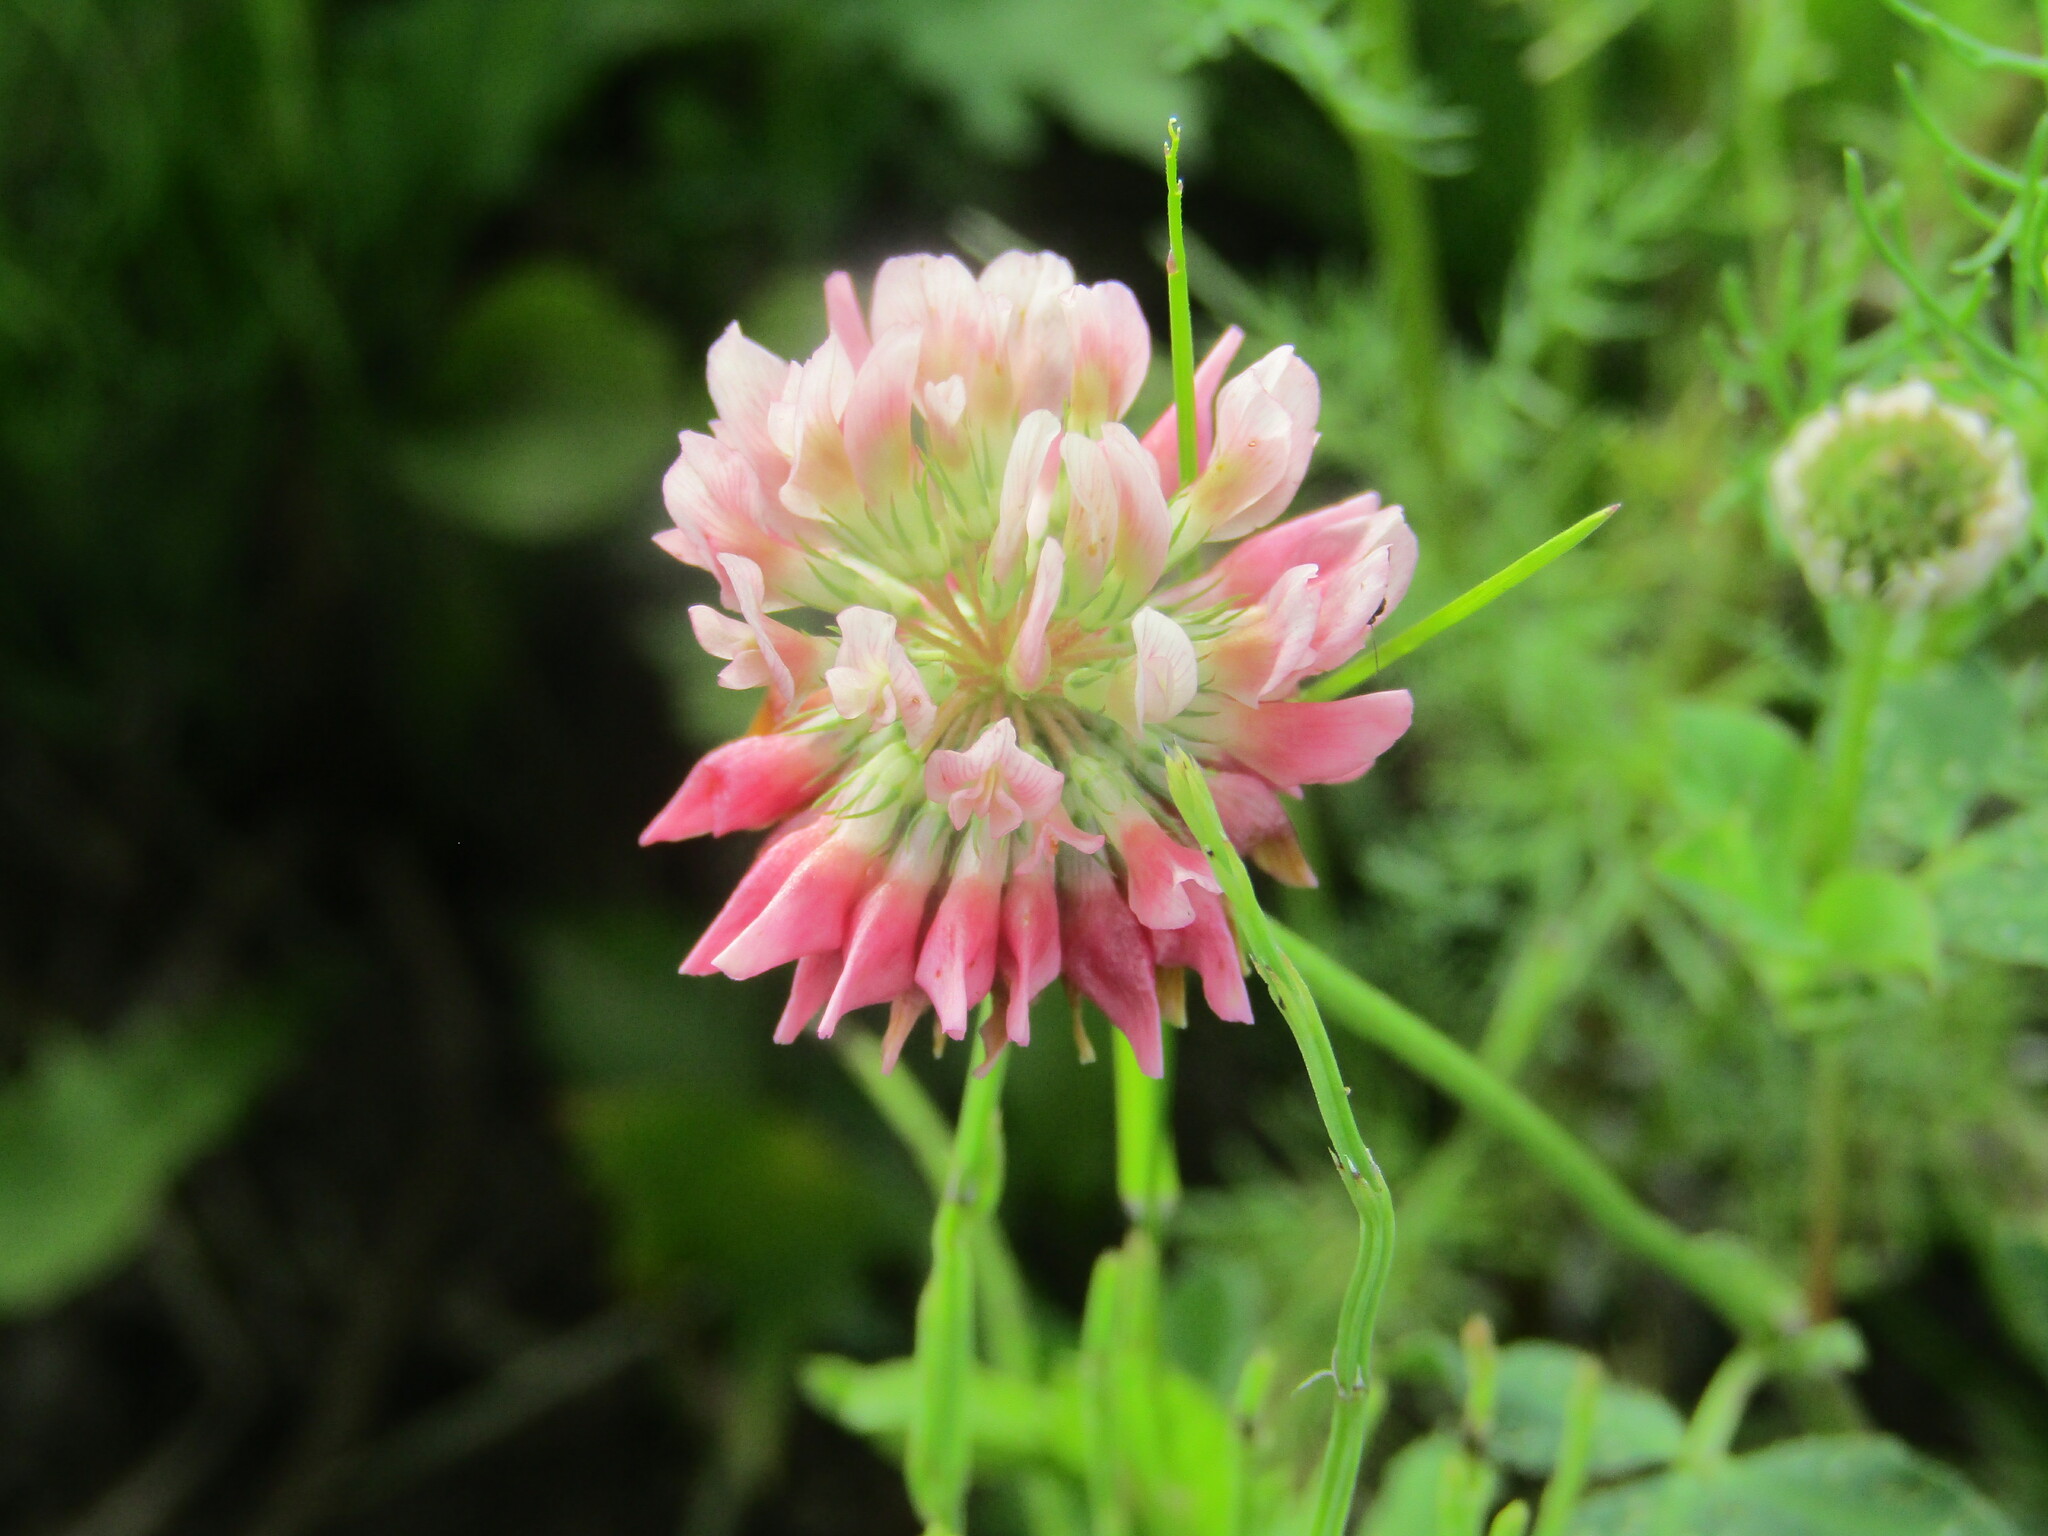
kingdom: Plantae
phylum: Tracheophyta
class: Magnoliopsida
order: Fabales
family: Fabaceae
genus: Trifolium
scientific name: Trifolium hybridum
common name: Alsike clover
